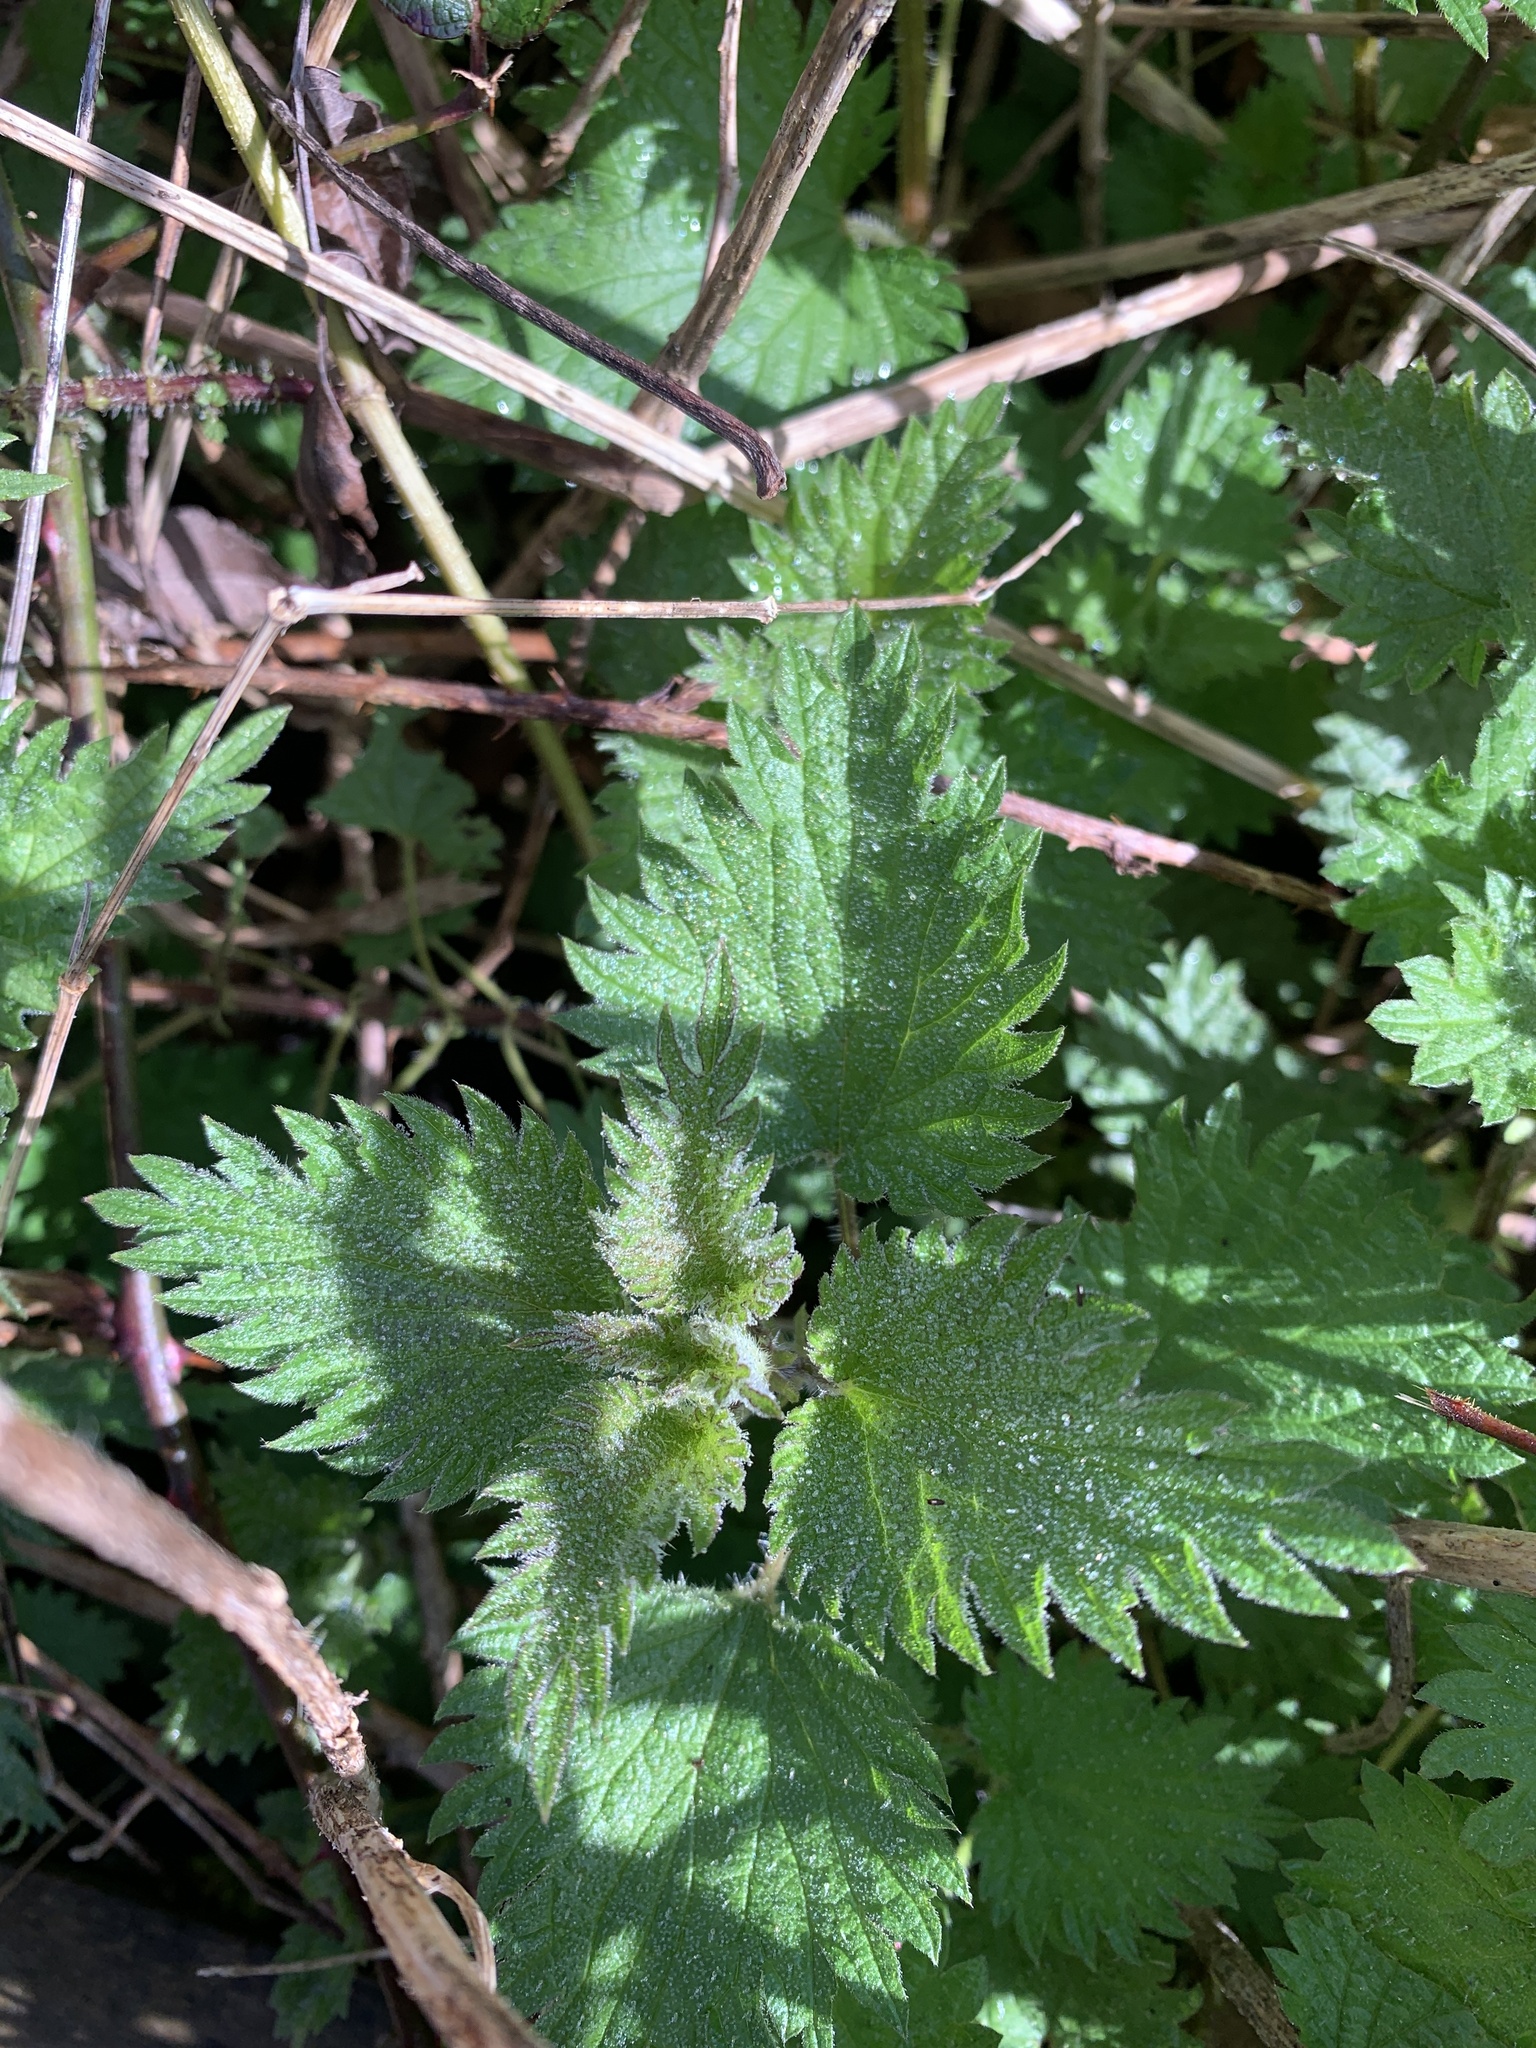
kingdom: Plantae
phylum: Tracheophyta
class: Magnoliopsida
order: Rosales
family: Urticaceae
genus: Urtica
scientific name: Urtica dioica
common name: Common nettle
